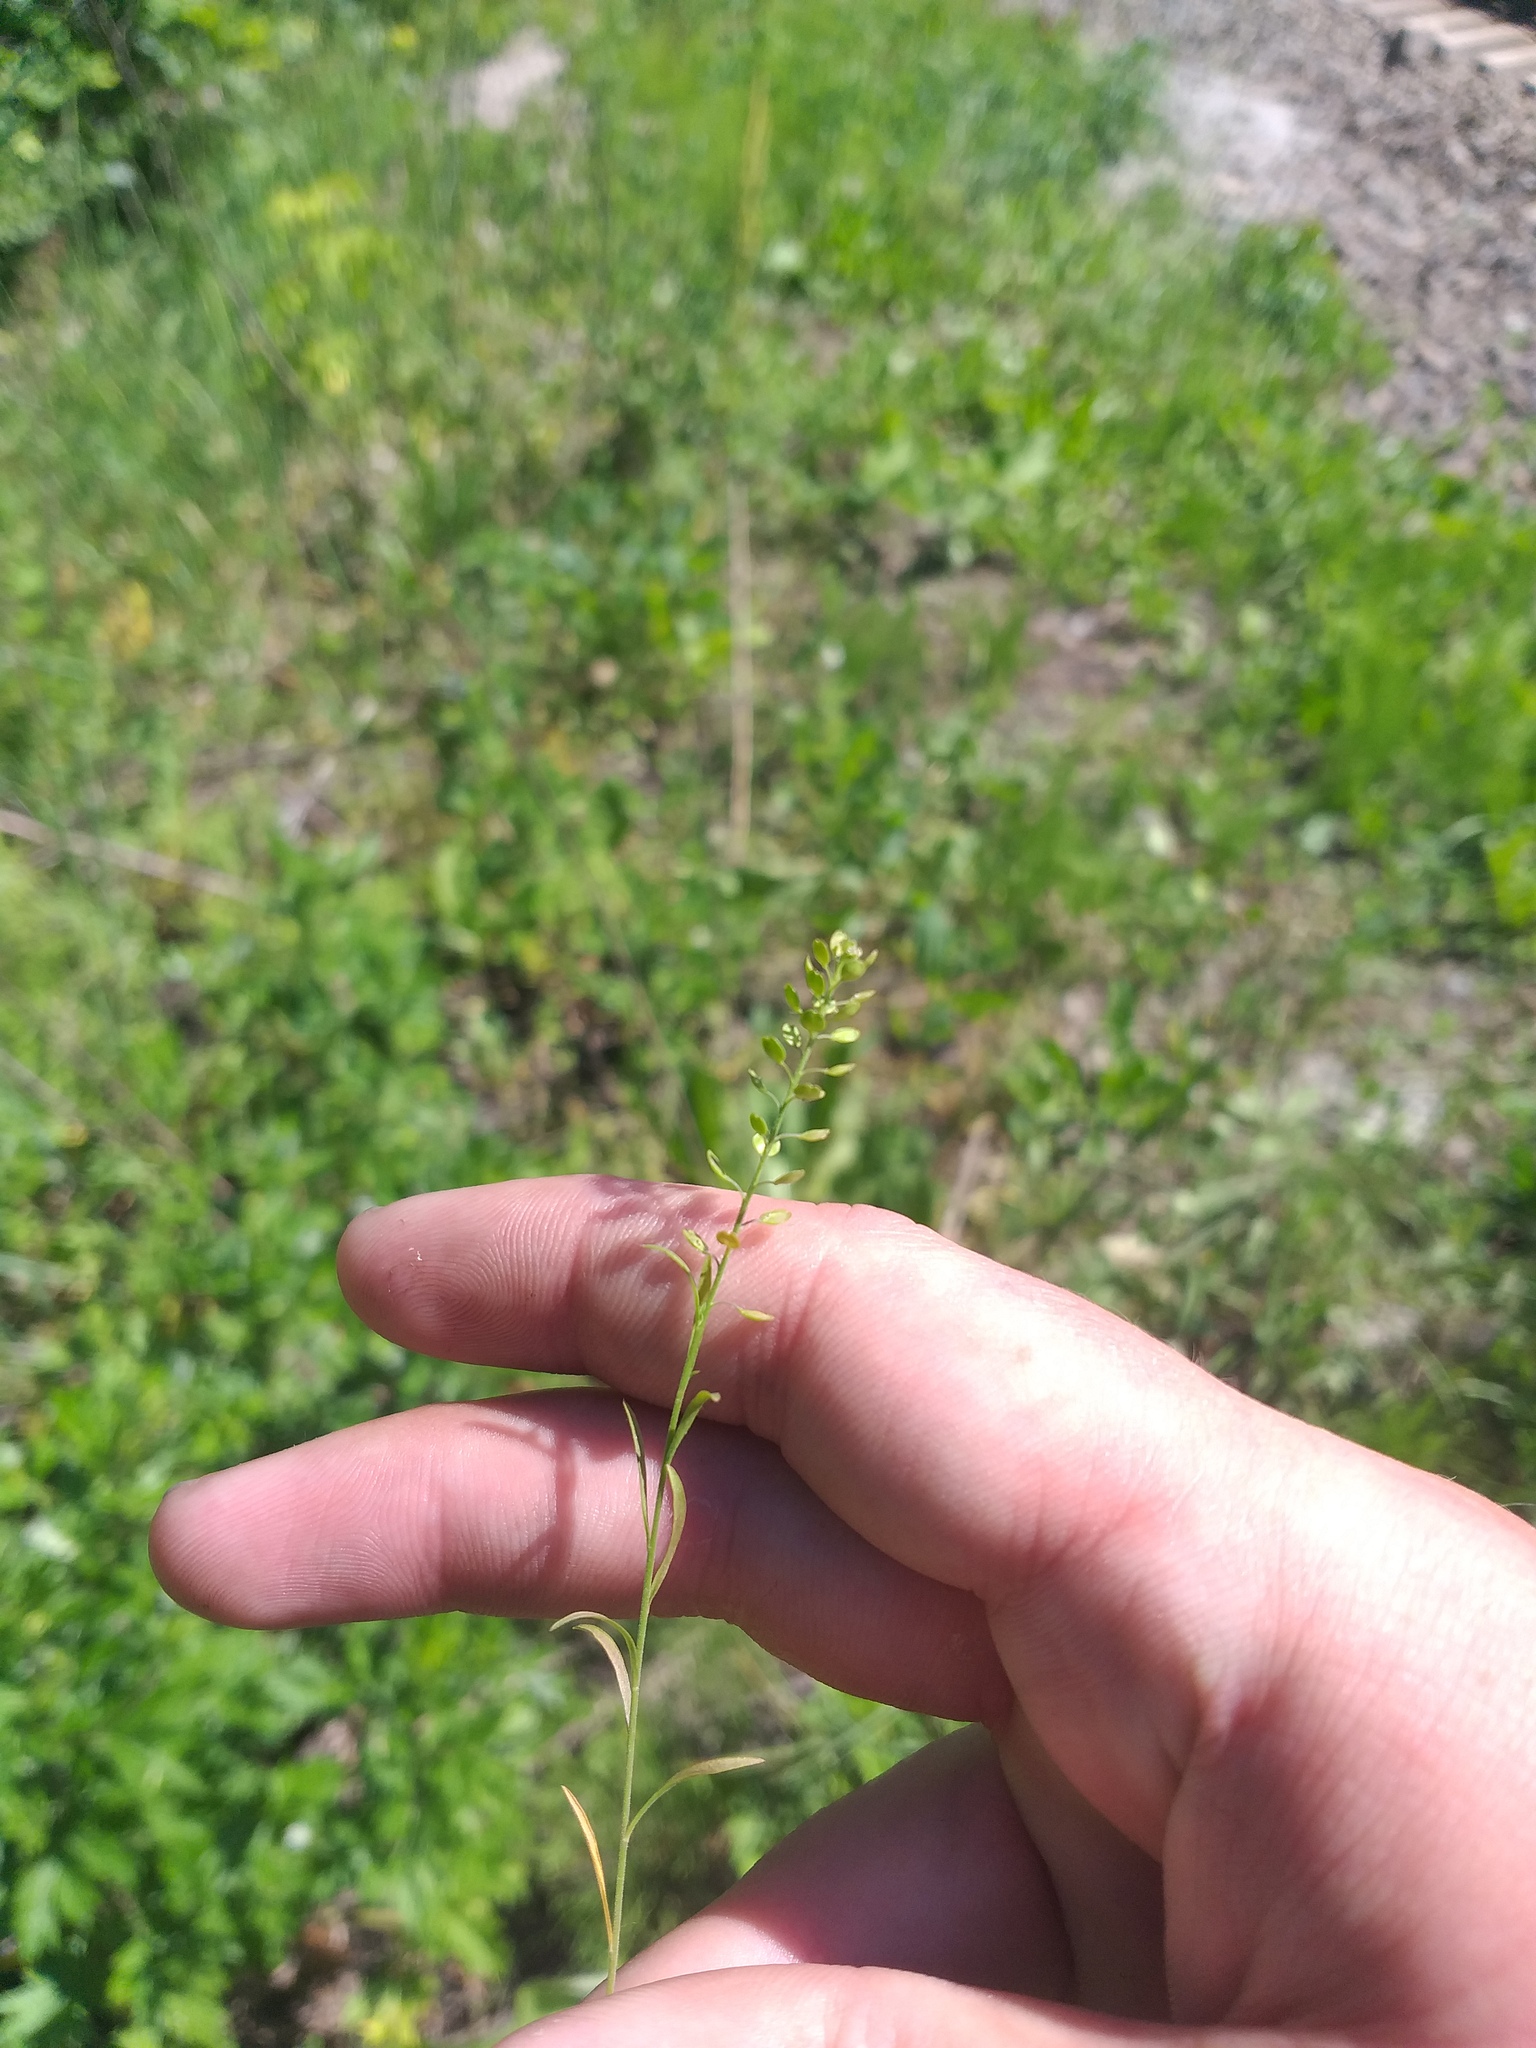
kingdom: Plantae
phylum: Tracheophyta
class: Magnoliopsida
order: Brassicales
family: Brassicaceae
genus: Lepidium
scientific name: Lepidium densiflorum
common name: Miner's pepperwort
